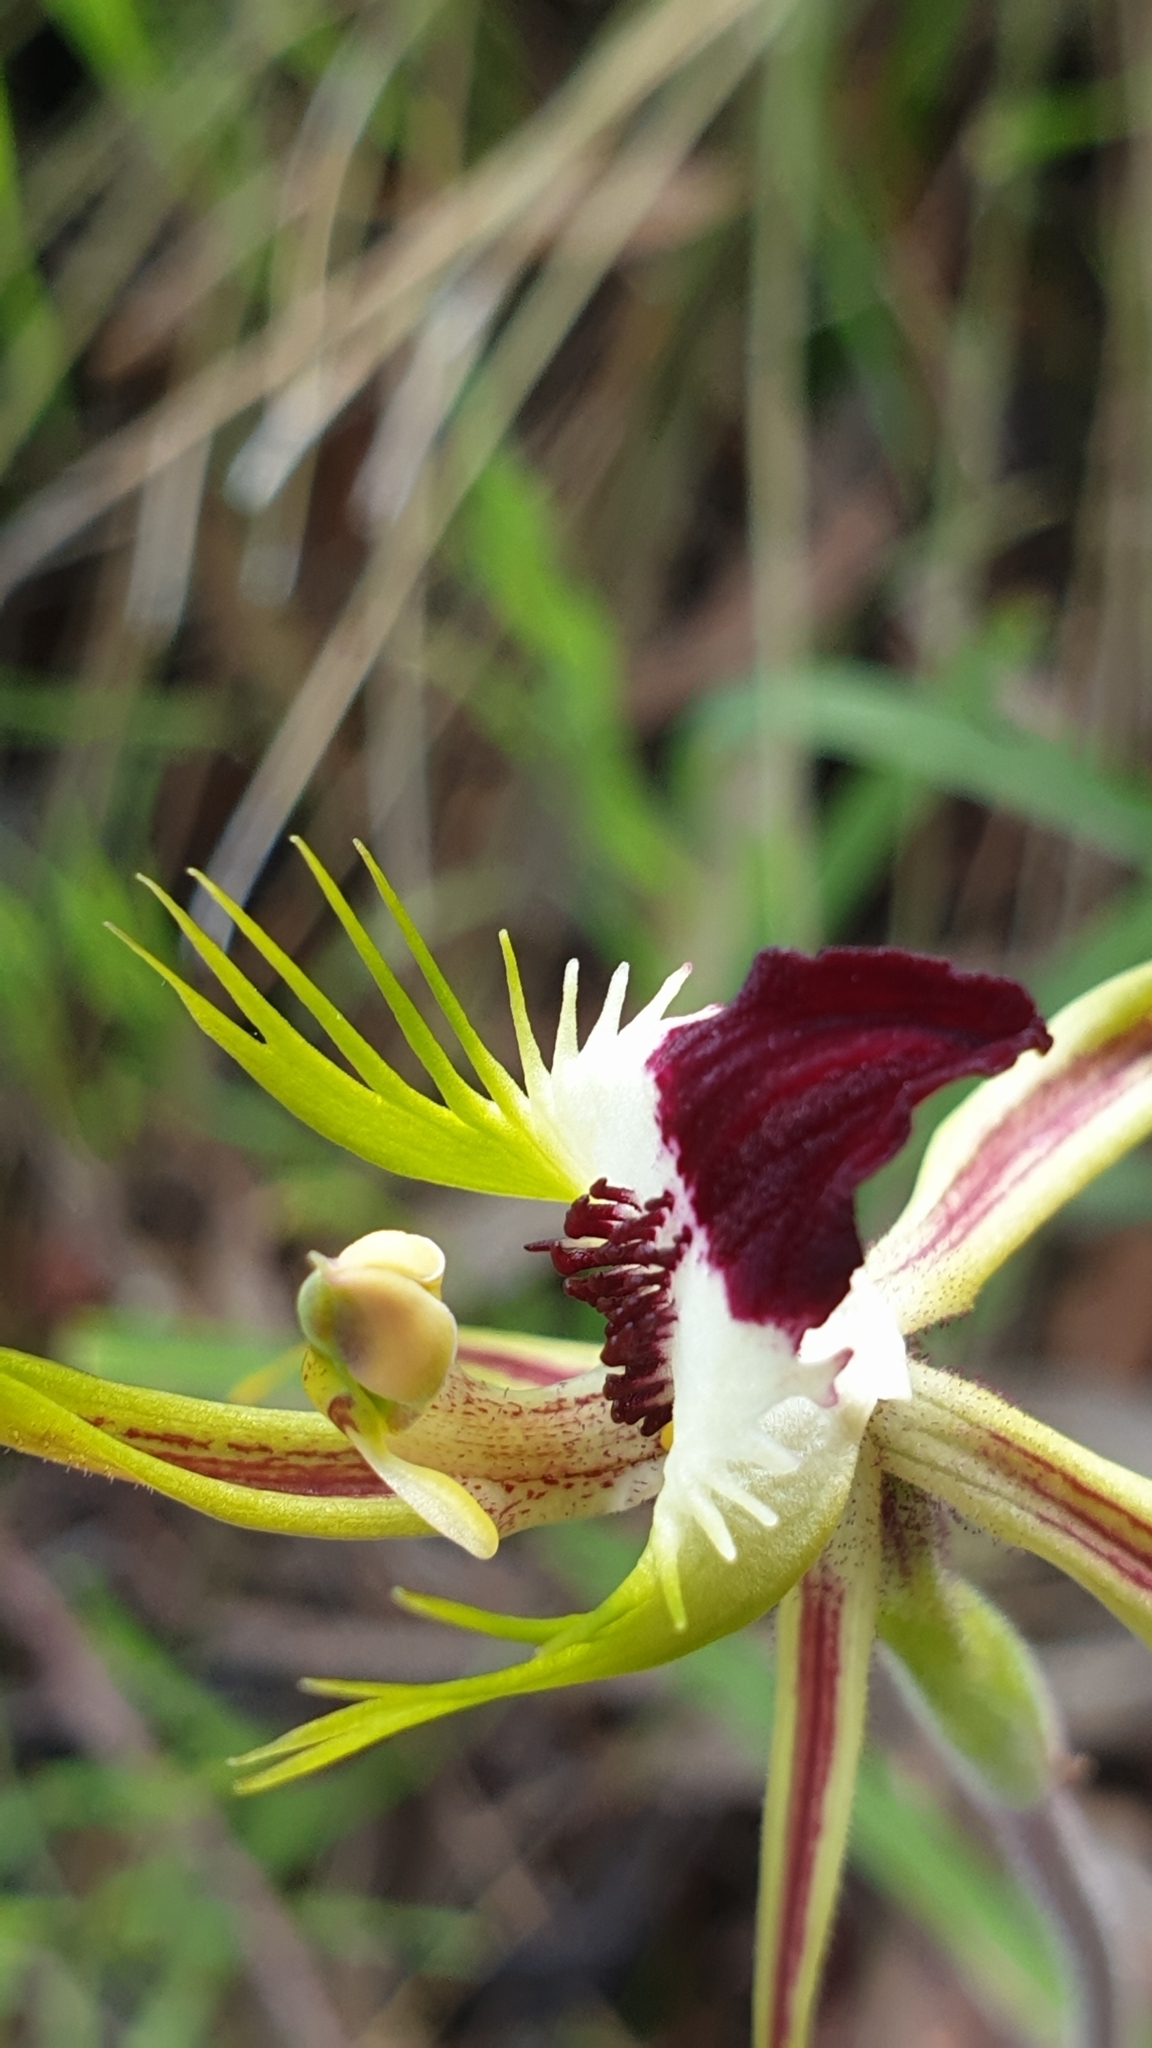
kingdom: Plantae
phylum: Tracheophyta
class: Liliopsida
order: Asparagales
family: Orchidaceae
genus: Caladenia
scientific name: Caladenia tentaculata
